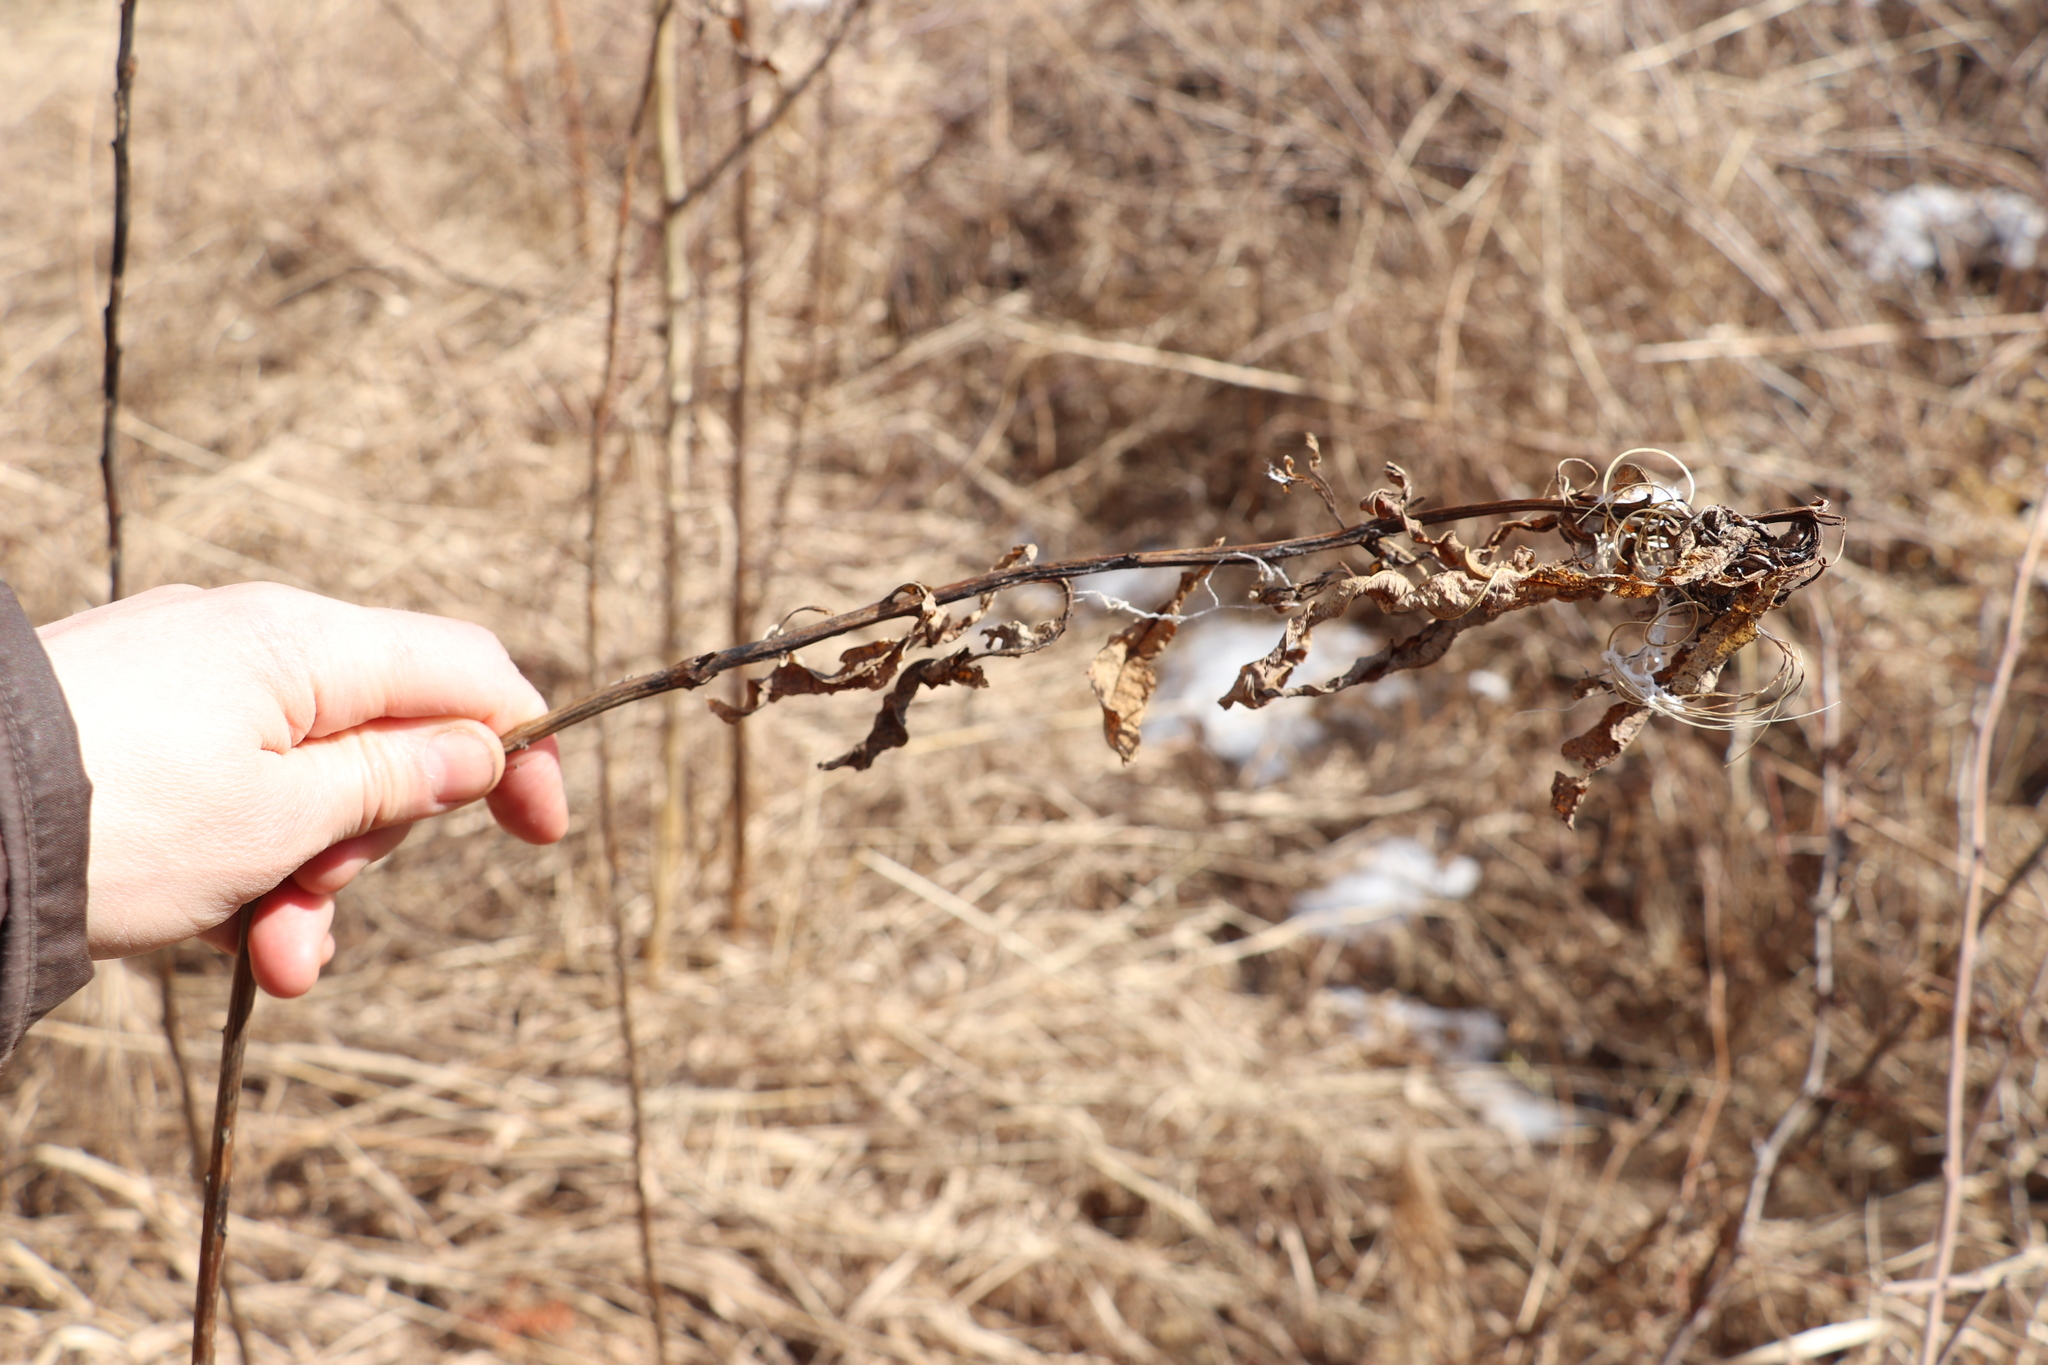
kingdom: Plantae
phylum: Tracheophyta
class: Magnoliopsida
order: Myrtales
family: Onagraceae
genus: Chamaenerion
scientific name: Chamaenerion angustifolium
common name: Fireweed
